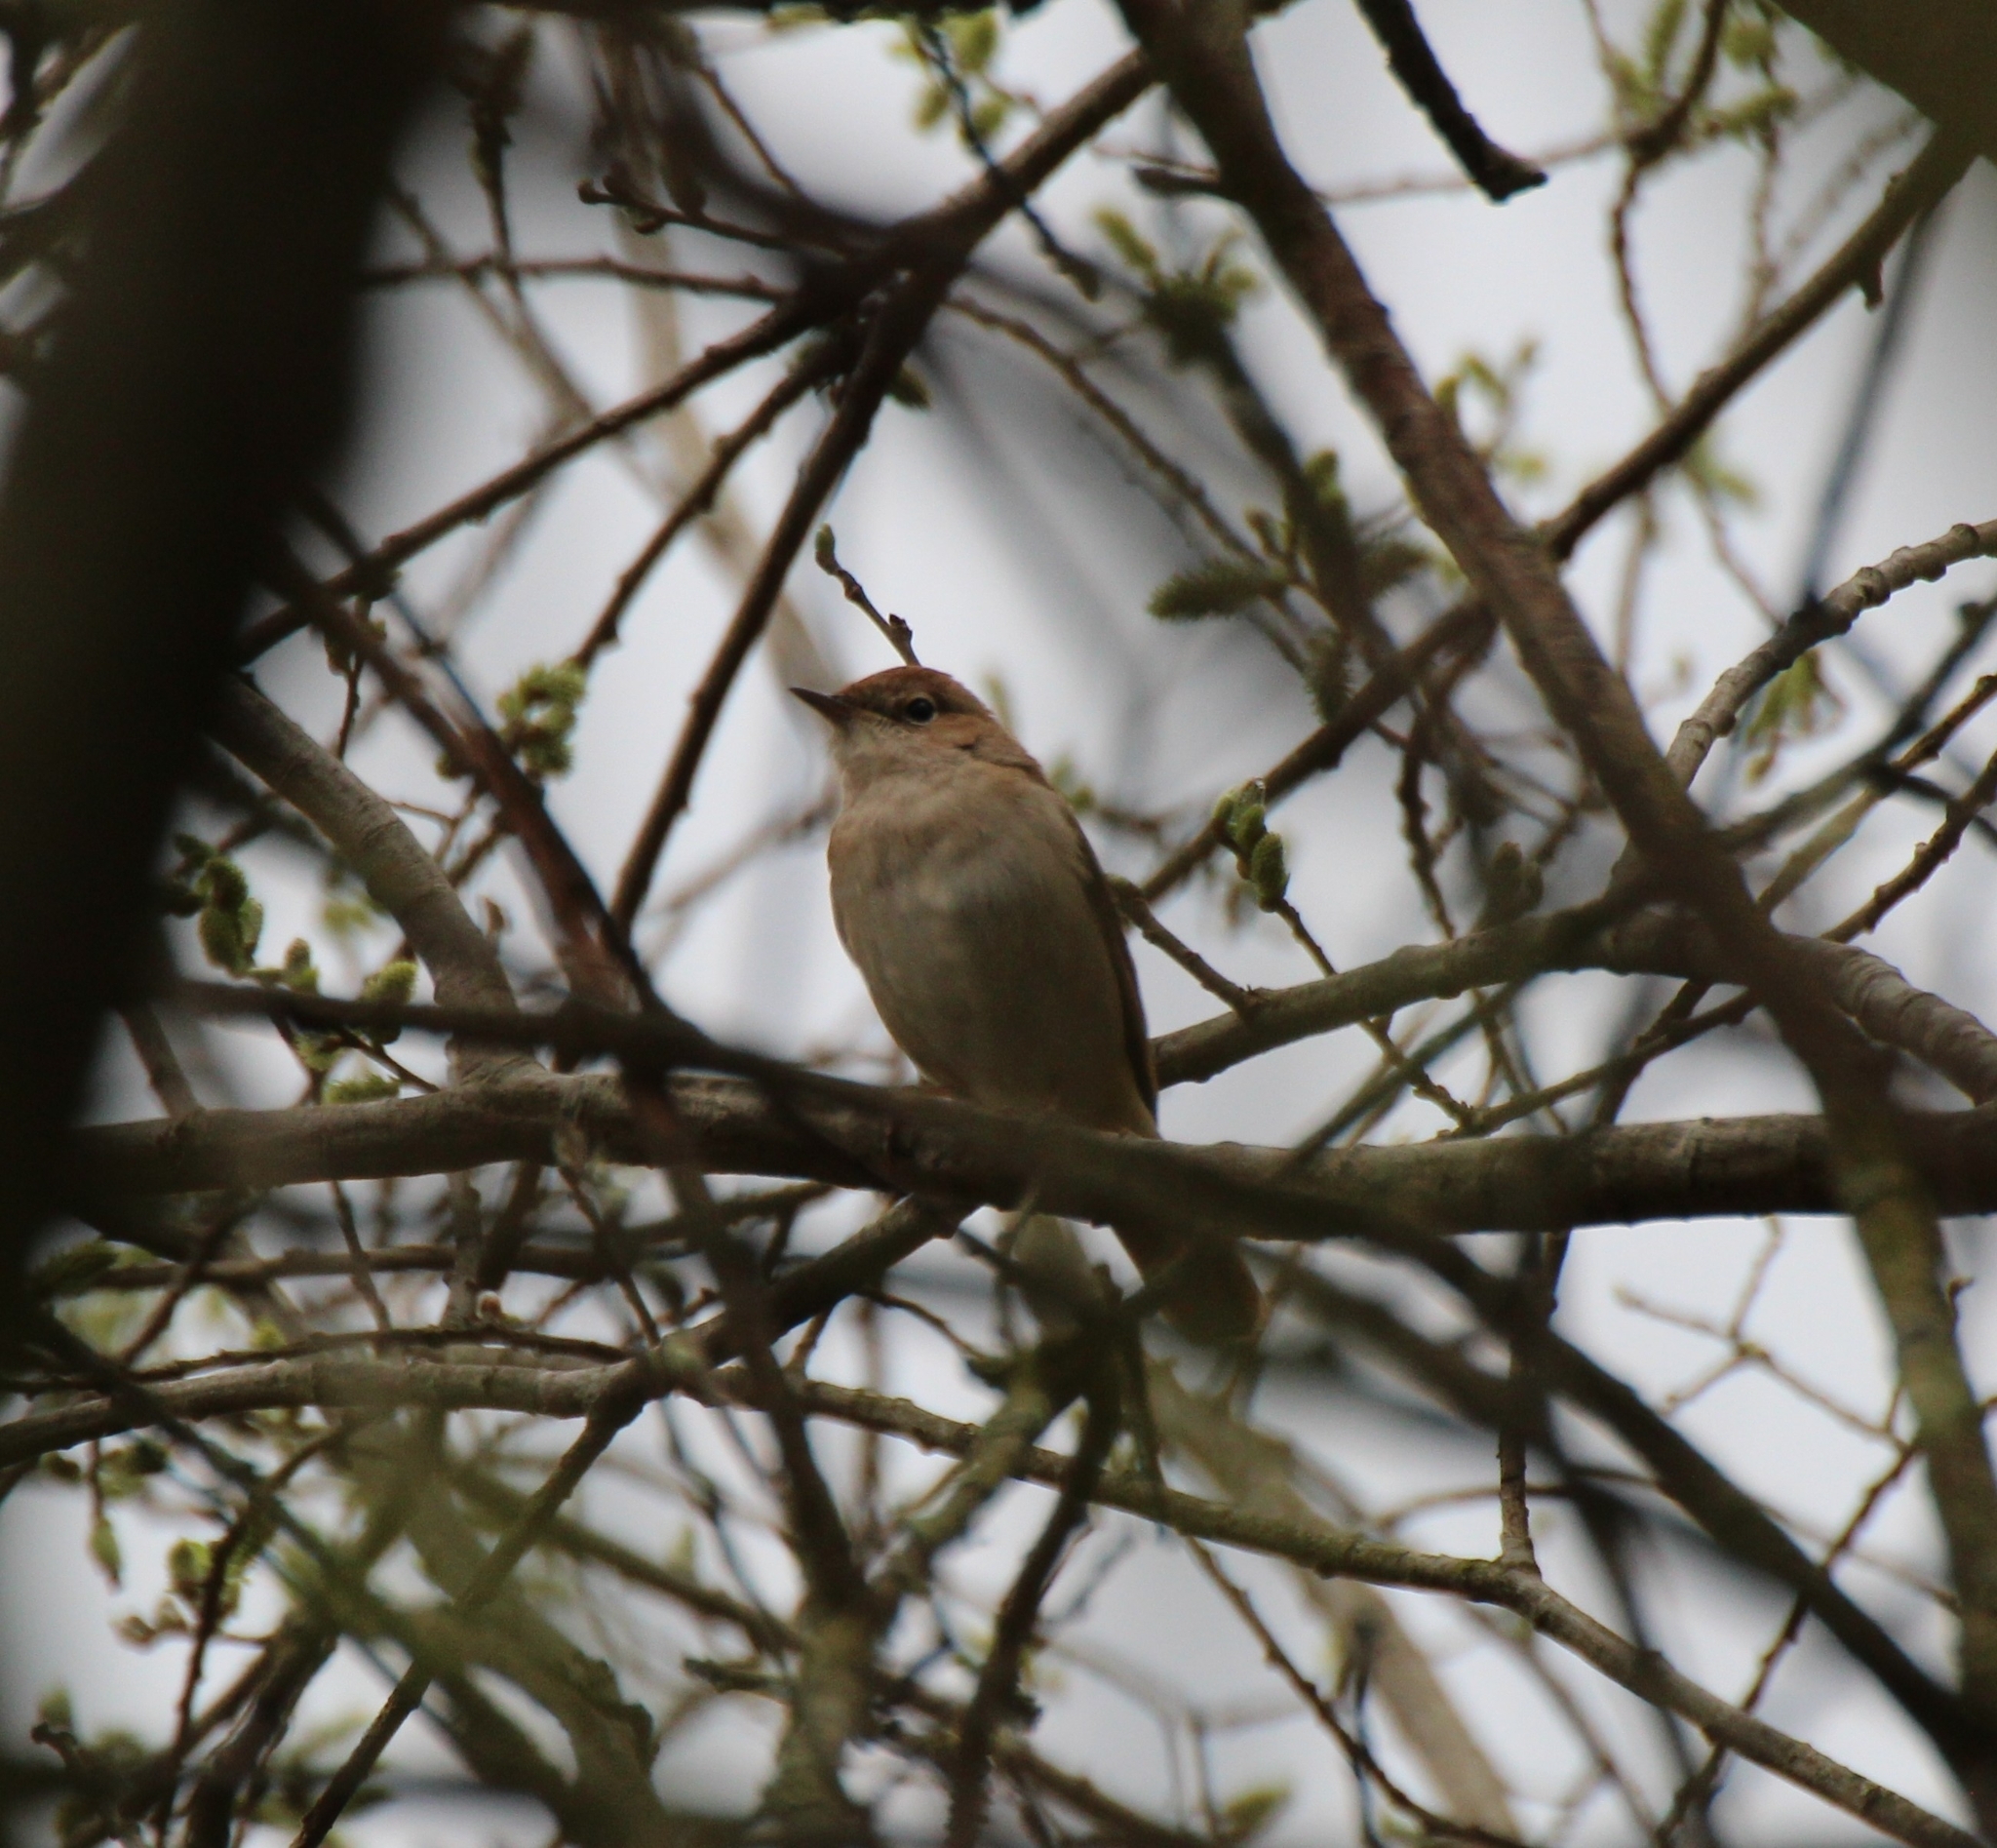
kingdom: Animalia
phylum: Chordata
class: Aves
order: Passeriformes
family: Muscicapidae
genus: Luscinia
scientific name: Luscinia megarhynchos
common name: Common nightingale
